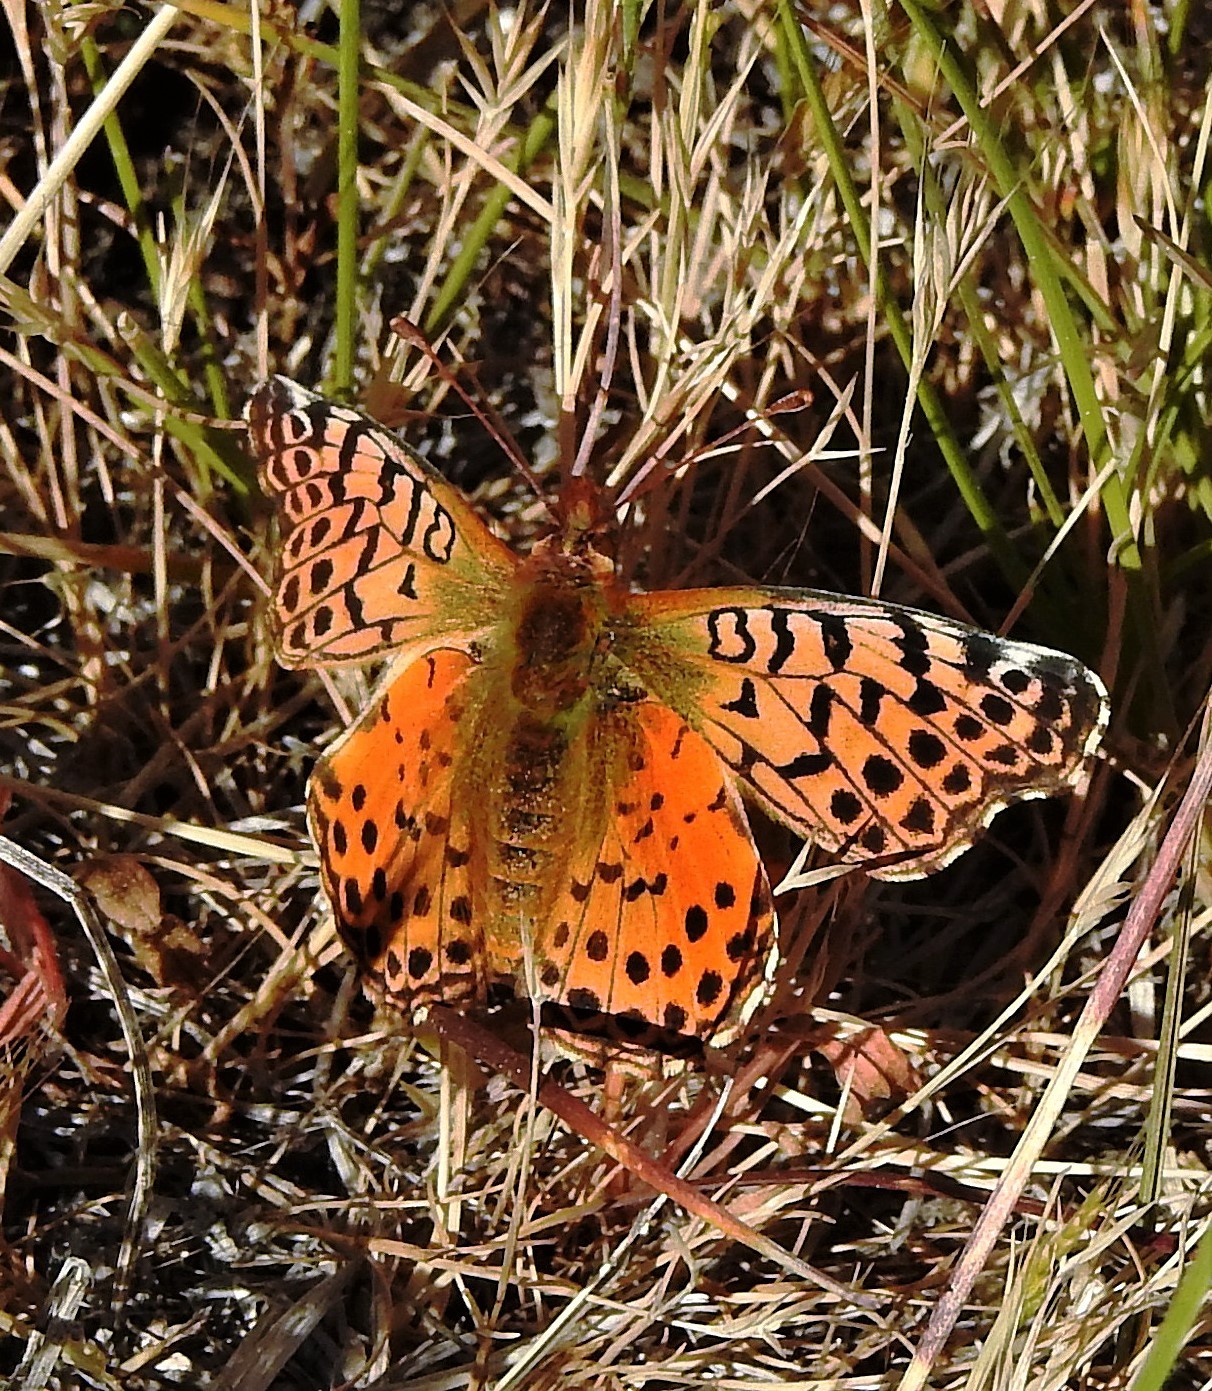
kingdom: Animalia
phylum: Arthropoda
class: Insecta
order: Lepidoptera
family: Nymphalidae
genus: Issoria
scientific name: Issoria Yramea cytheris
